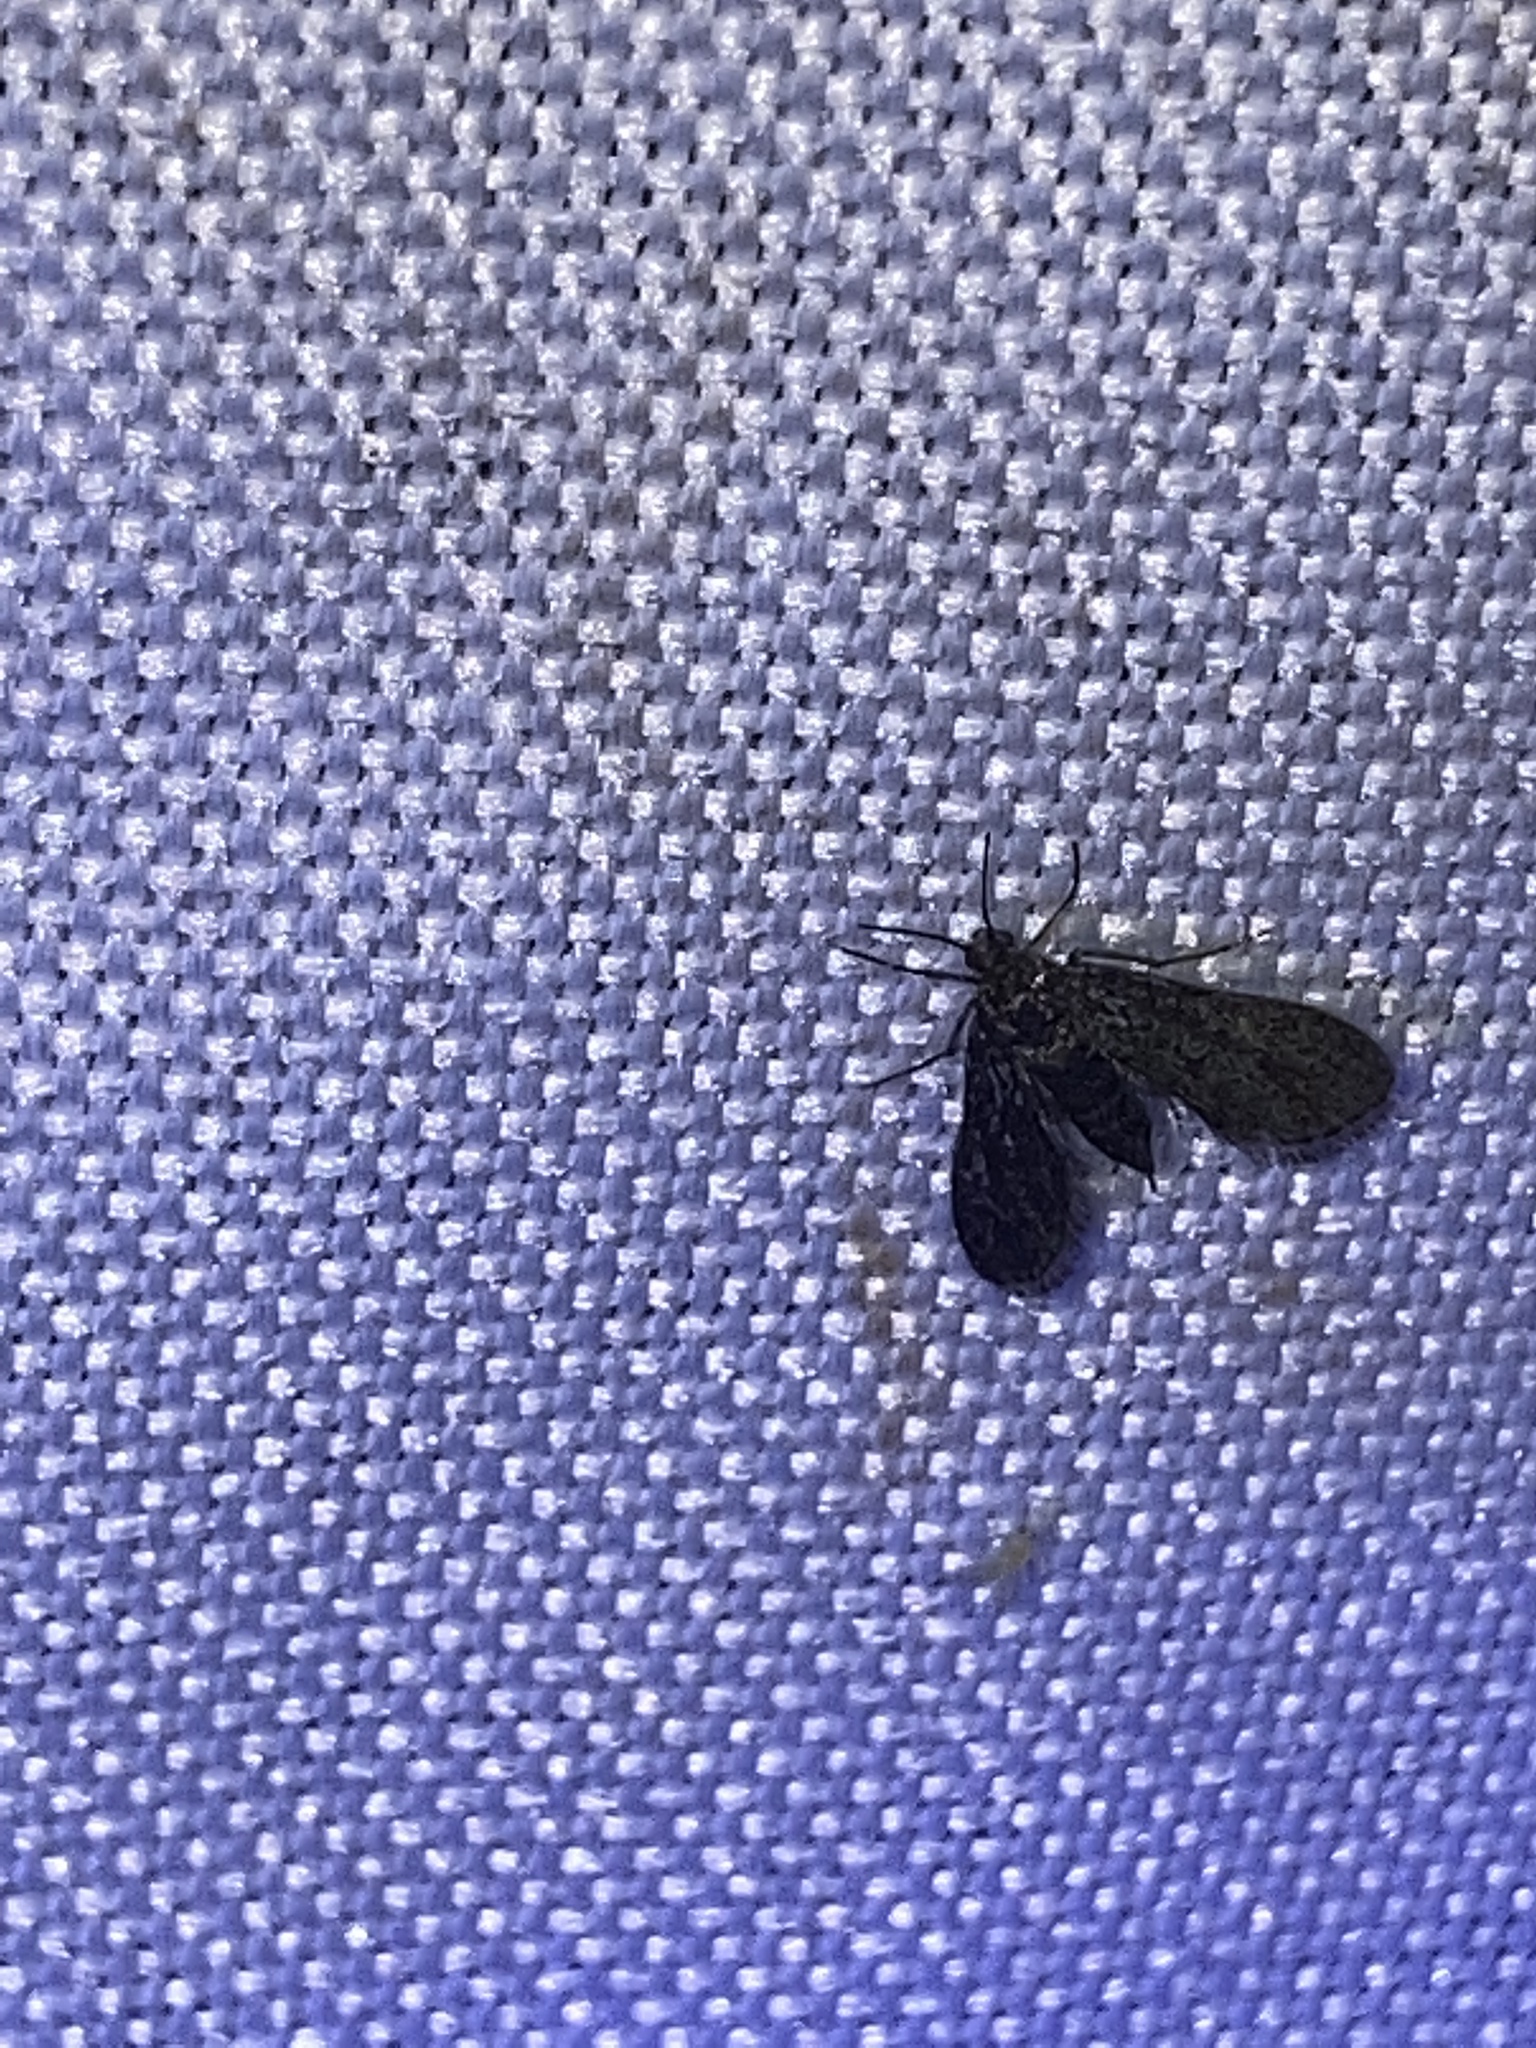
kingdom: Animalia
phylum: Arthropoda
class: Insecta
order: Lepidoptera
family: Crambidae
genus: Elophila
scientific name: Elophila tinealis
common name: Black duckweed moth
